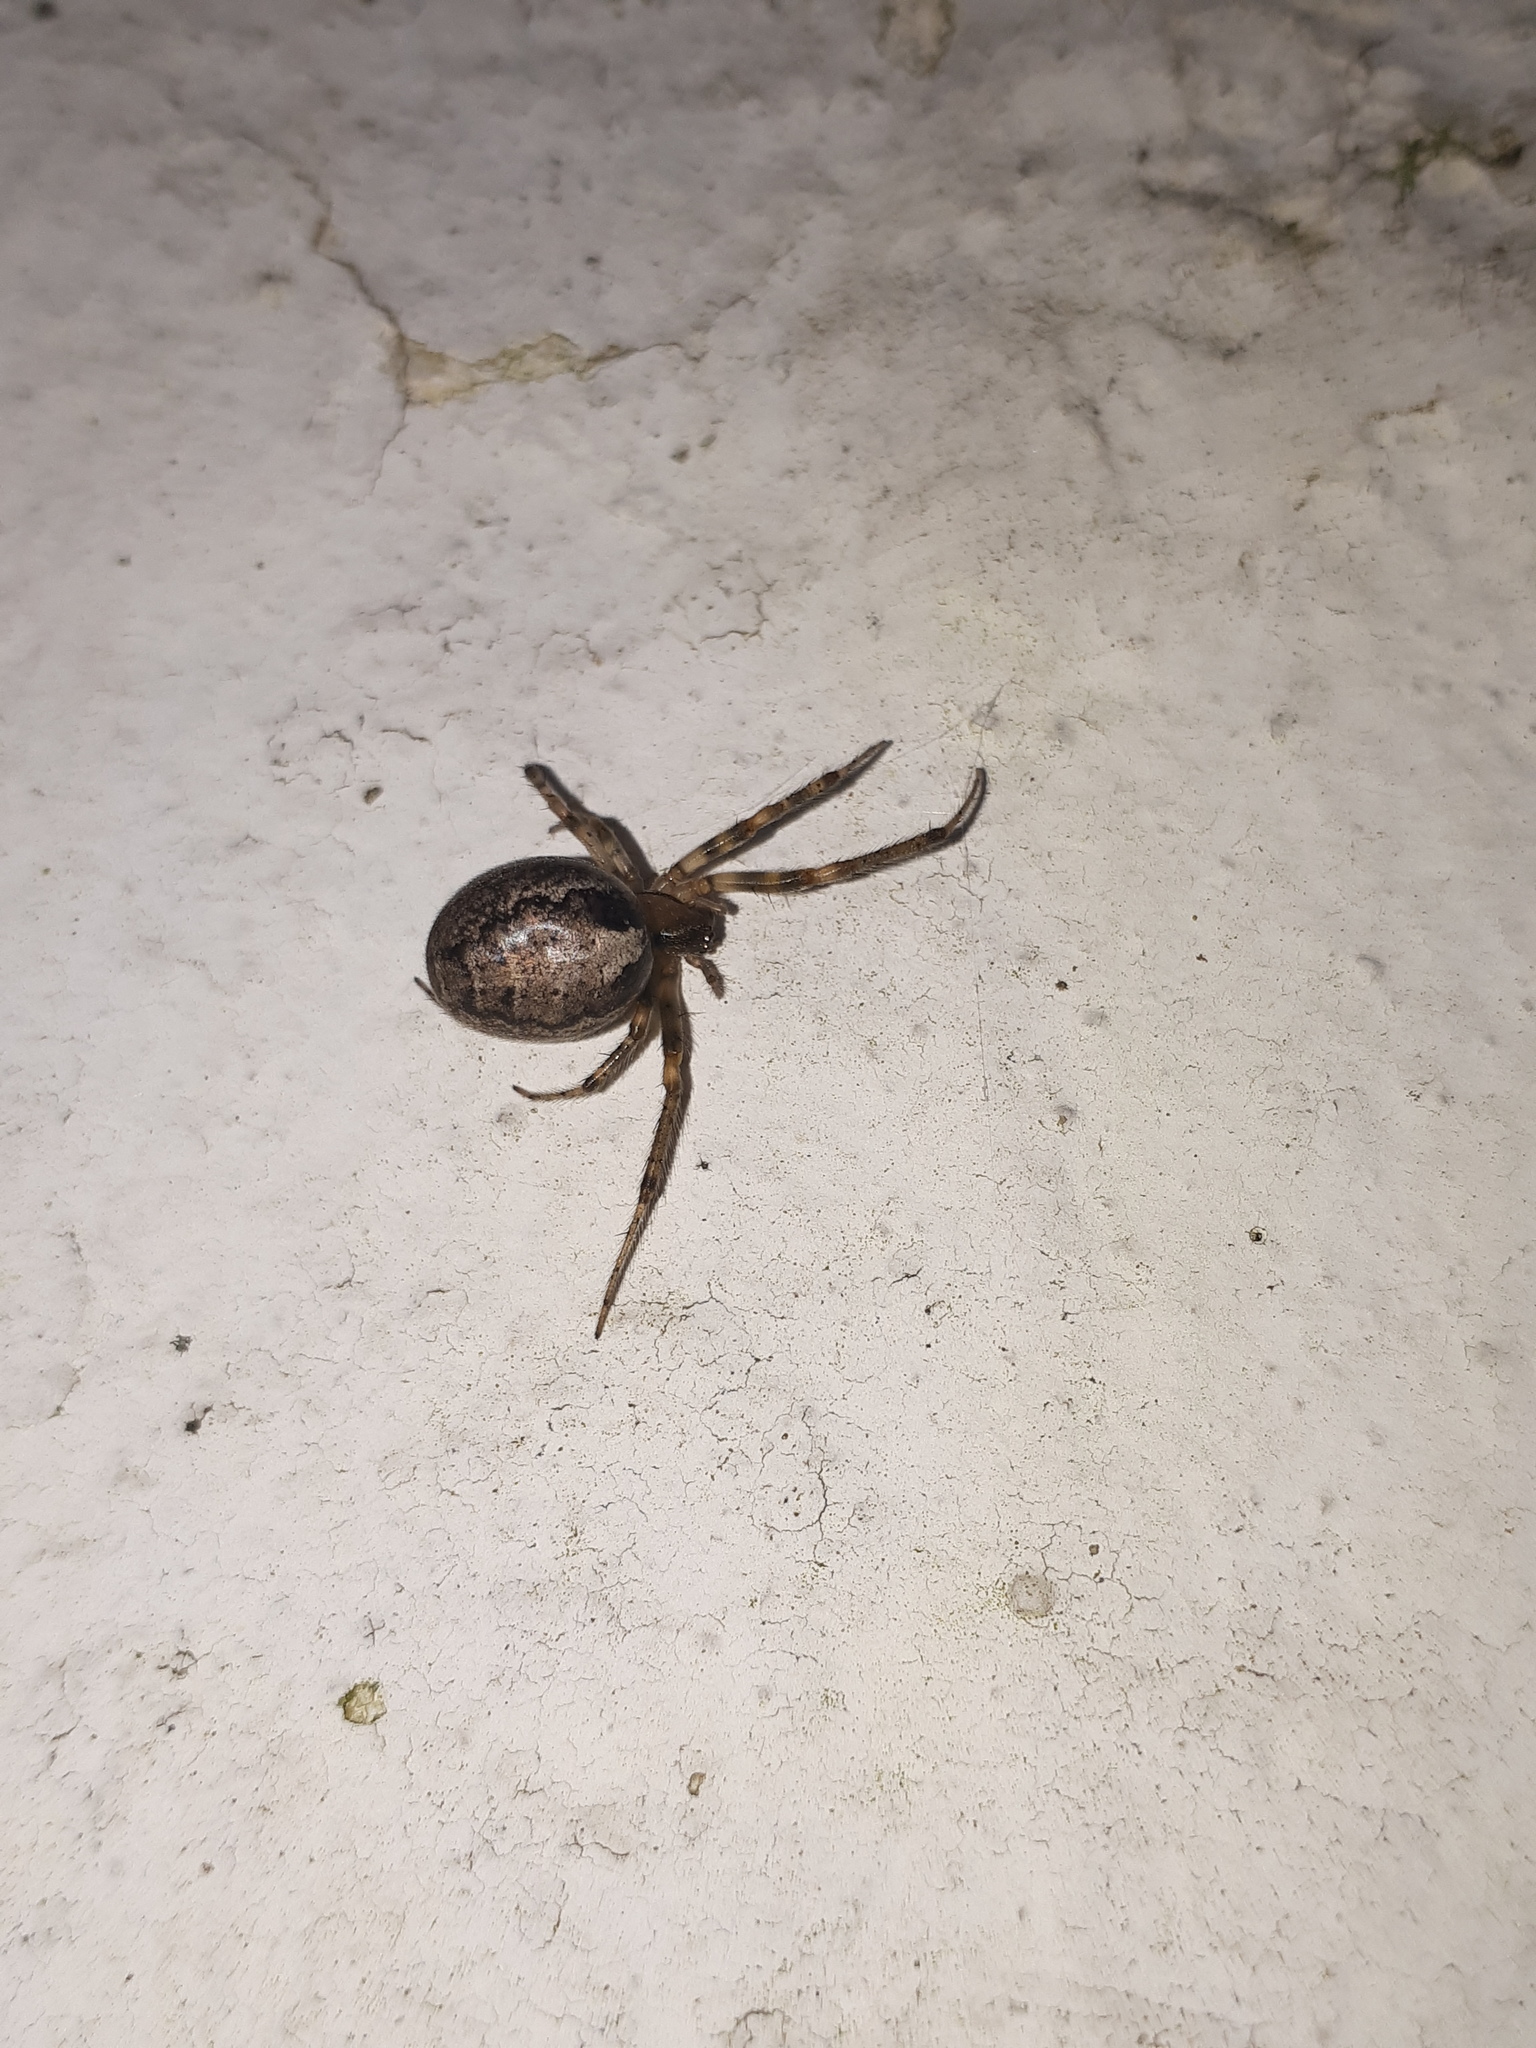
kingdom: Animalia
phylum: Arthropoda
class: Arachnida
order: Araneae
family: Araneidae
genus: Zygiella
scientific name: Zygiella x-notata
